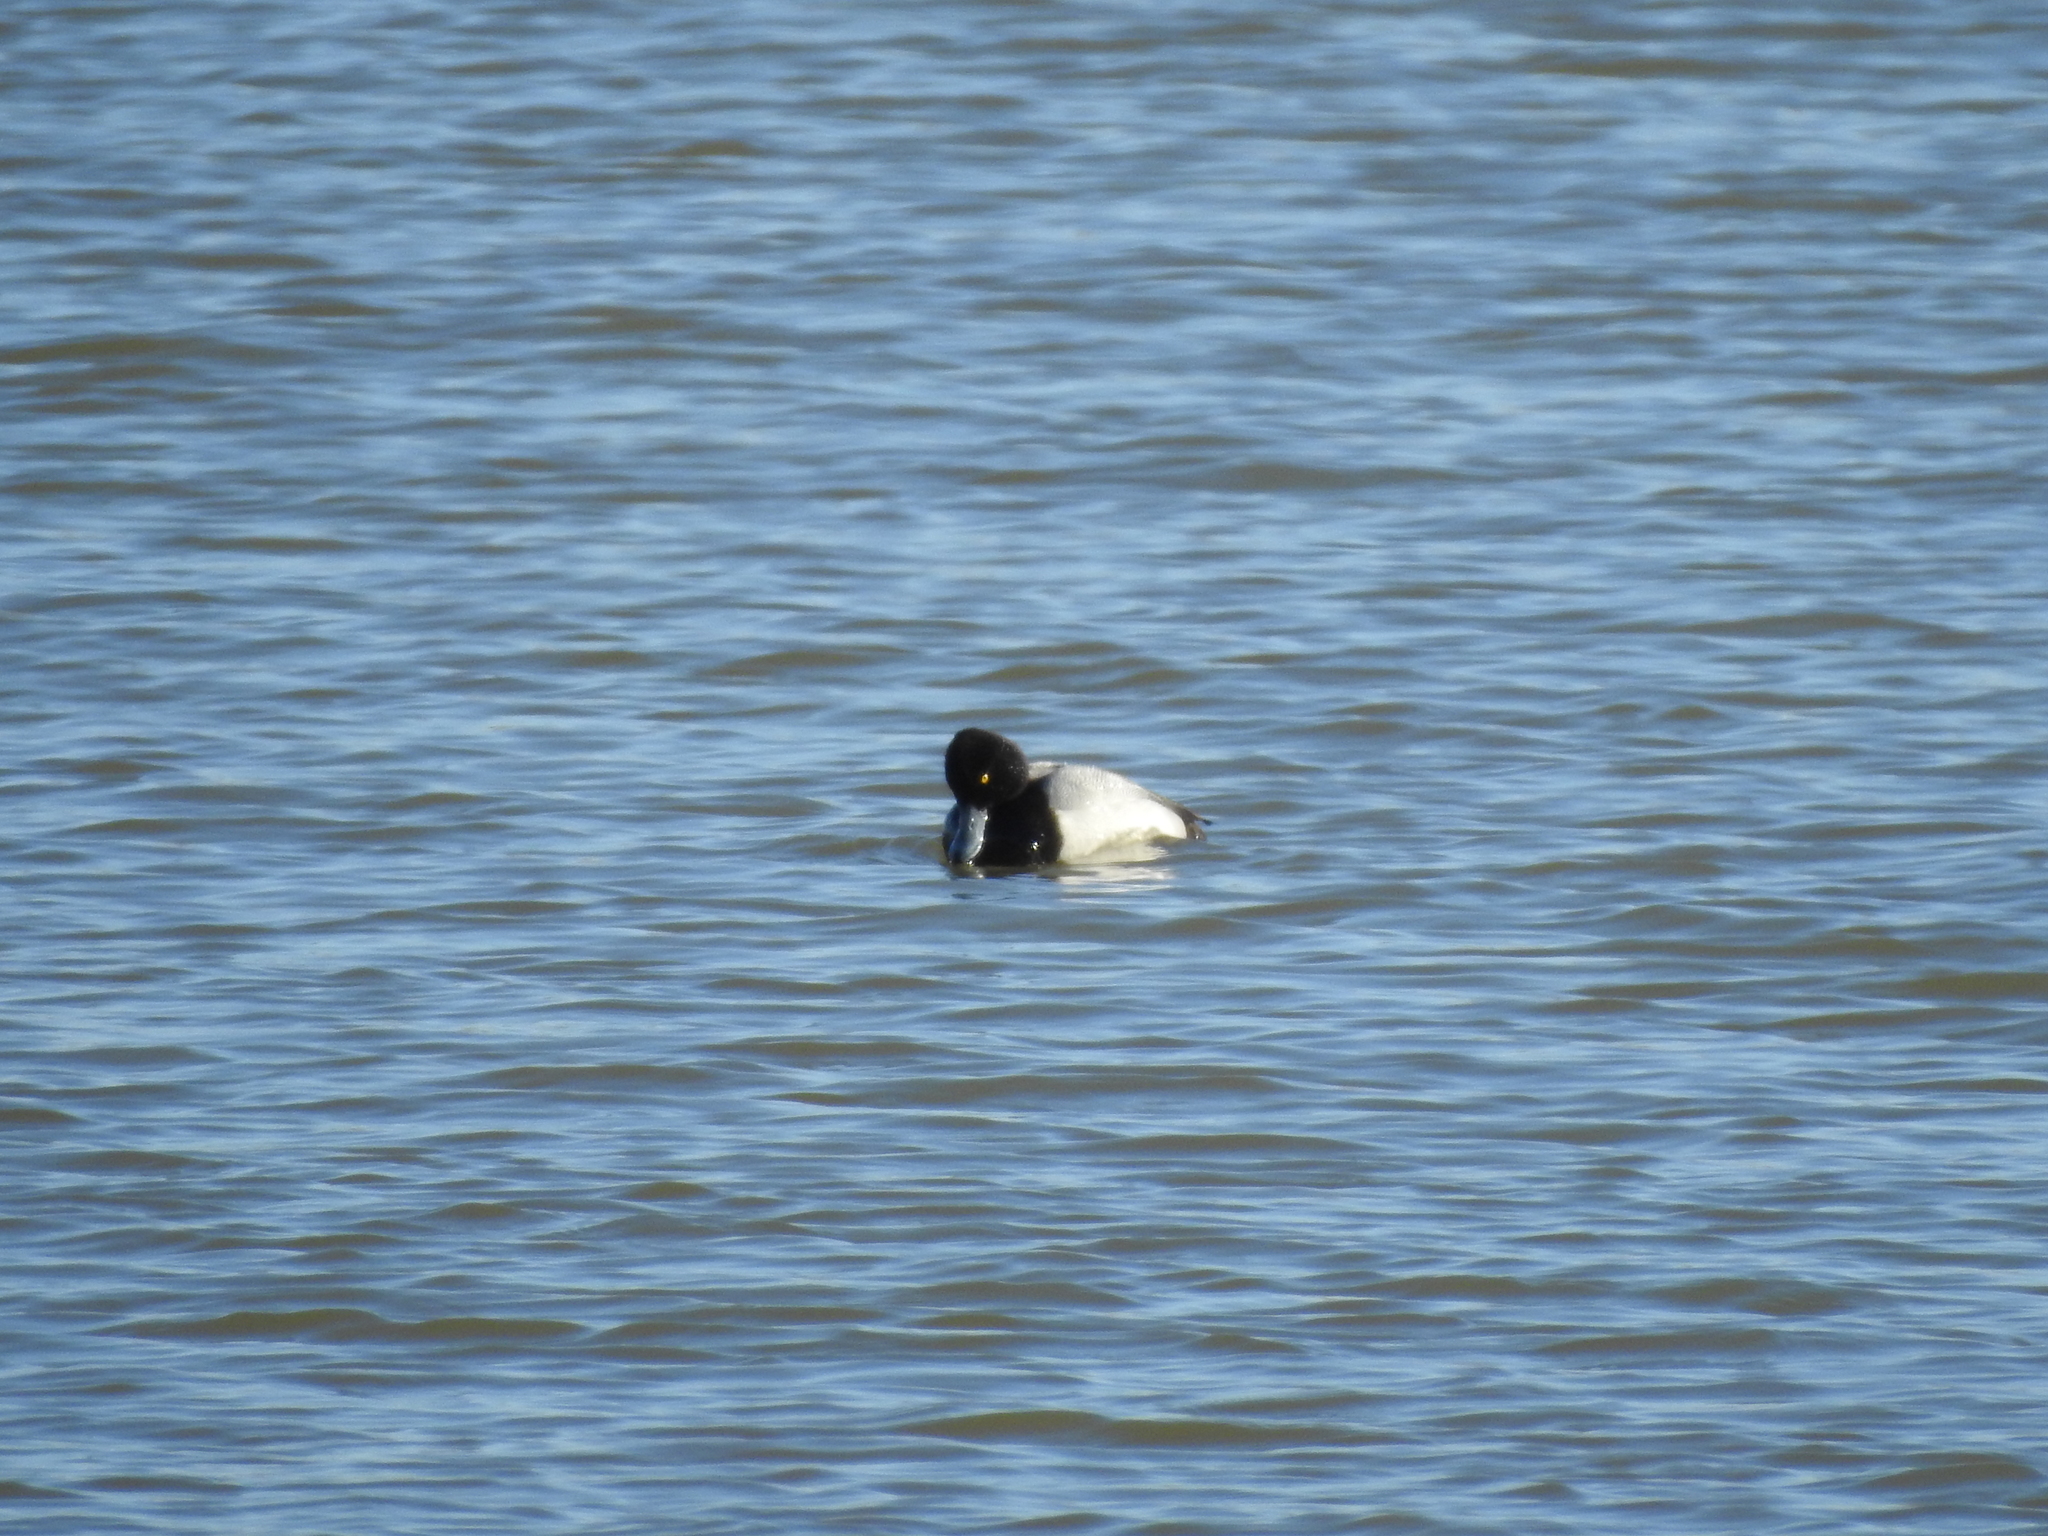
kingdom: Animalia
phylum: Chordata
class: Aves
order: Anseriformes
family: Anatidae
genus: Aythya
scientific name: Aythya affinis
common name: Lesser scaup
